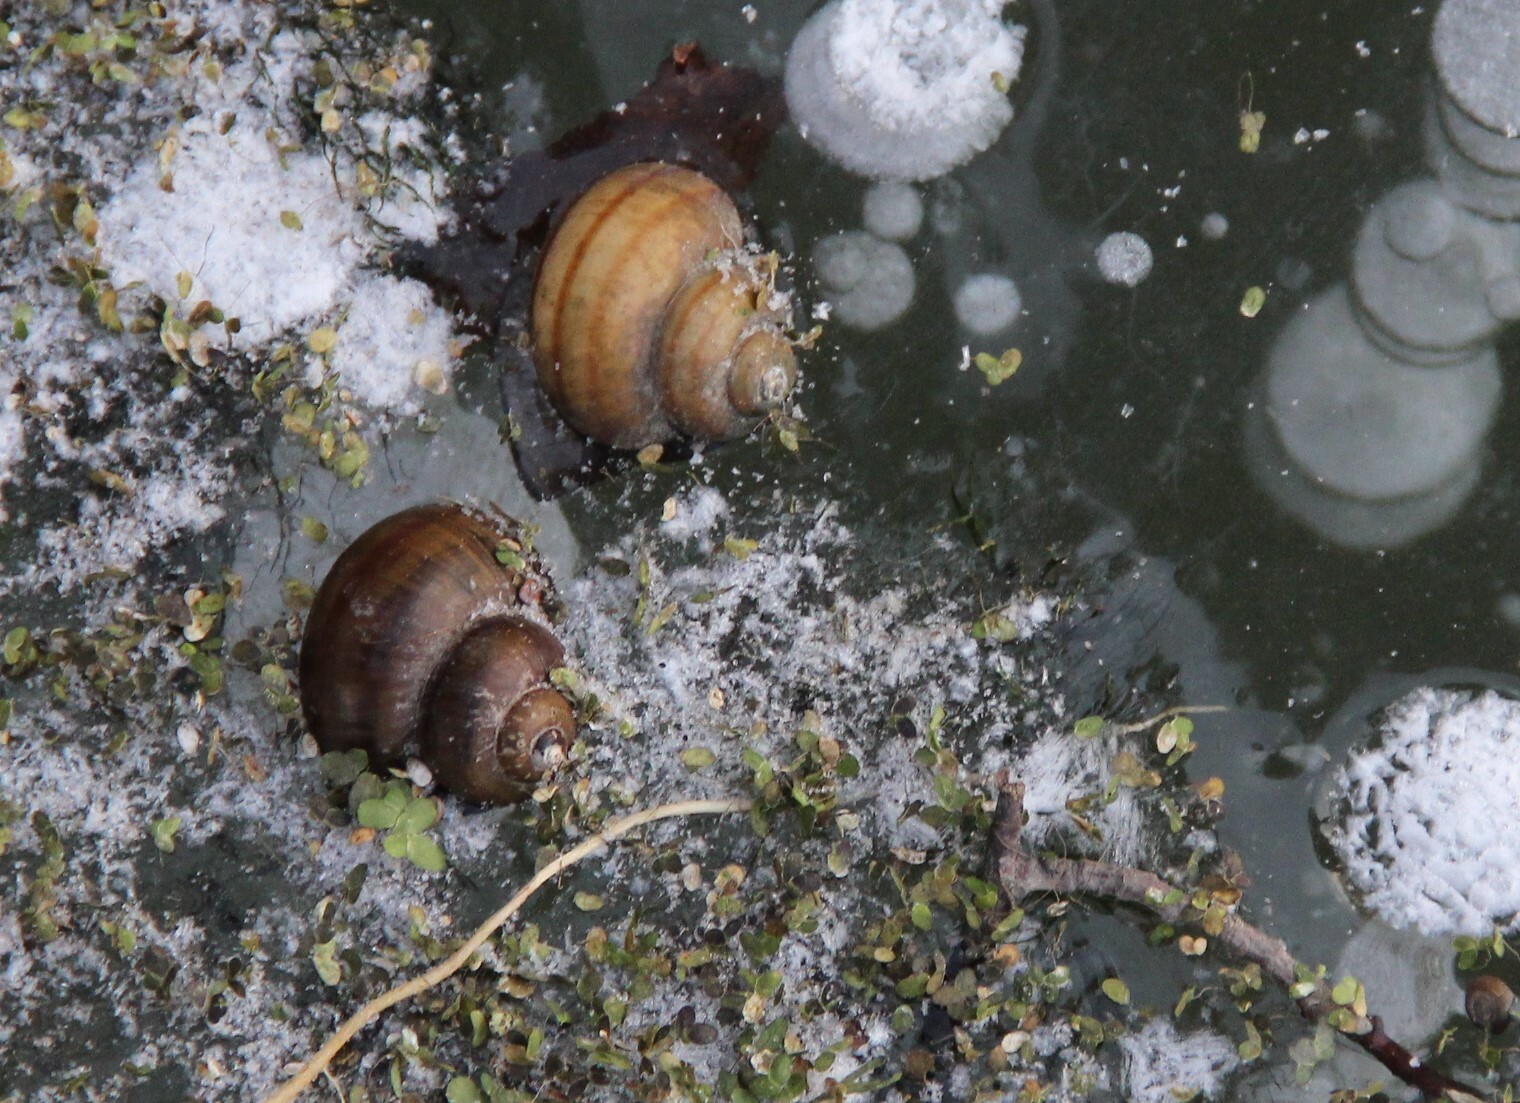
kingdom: Animalia
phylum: Mollusca
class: Gastropoda
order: Architaenioglossa
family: Viviparidae
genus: Viviparus
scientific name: Viviparus contectus
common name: Lister's river snail
